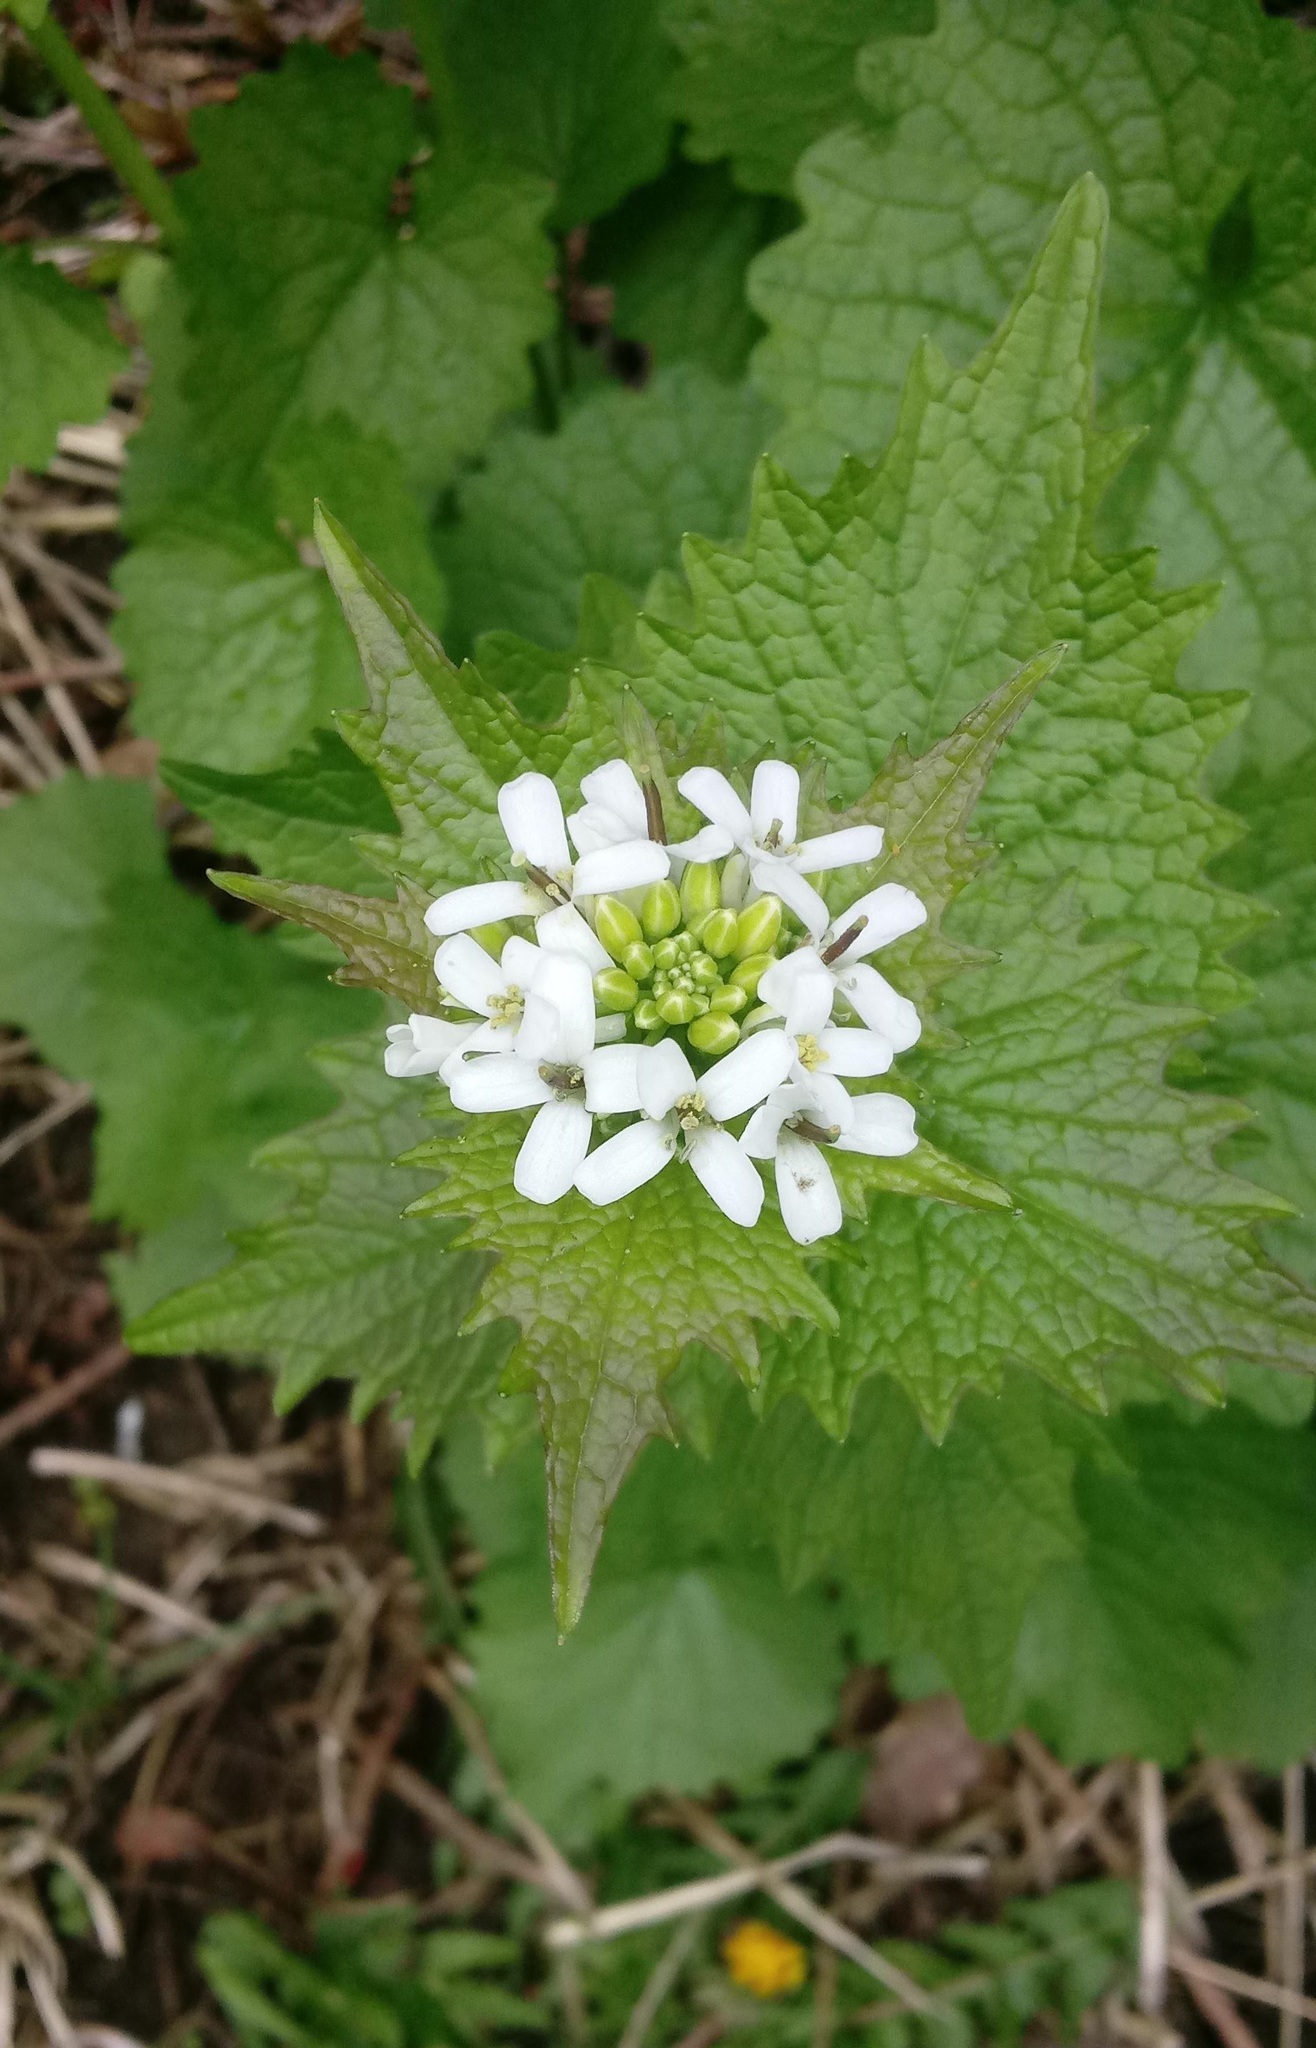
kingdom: Plantae
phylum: Tracheophyta
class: Magnoliopsida
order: Brassicales
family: Brassicaceae
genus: Alliaria
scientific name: Alliaria petiolata
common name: Garlic mustard
